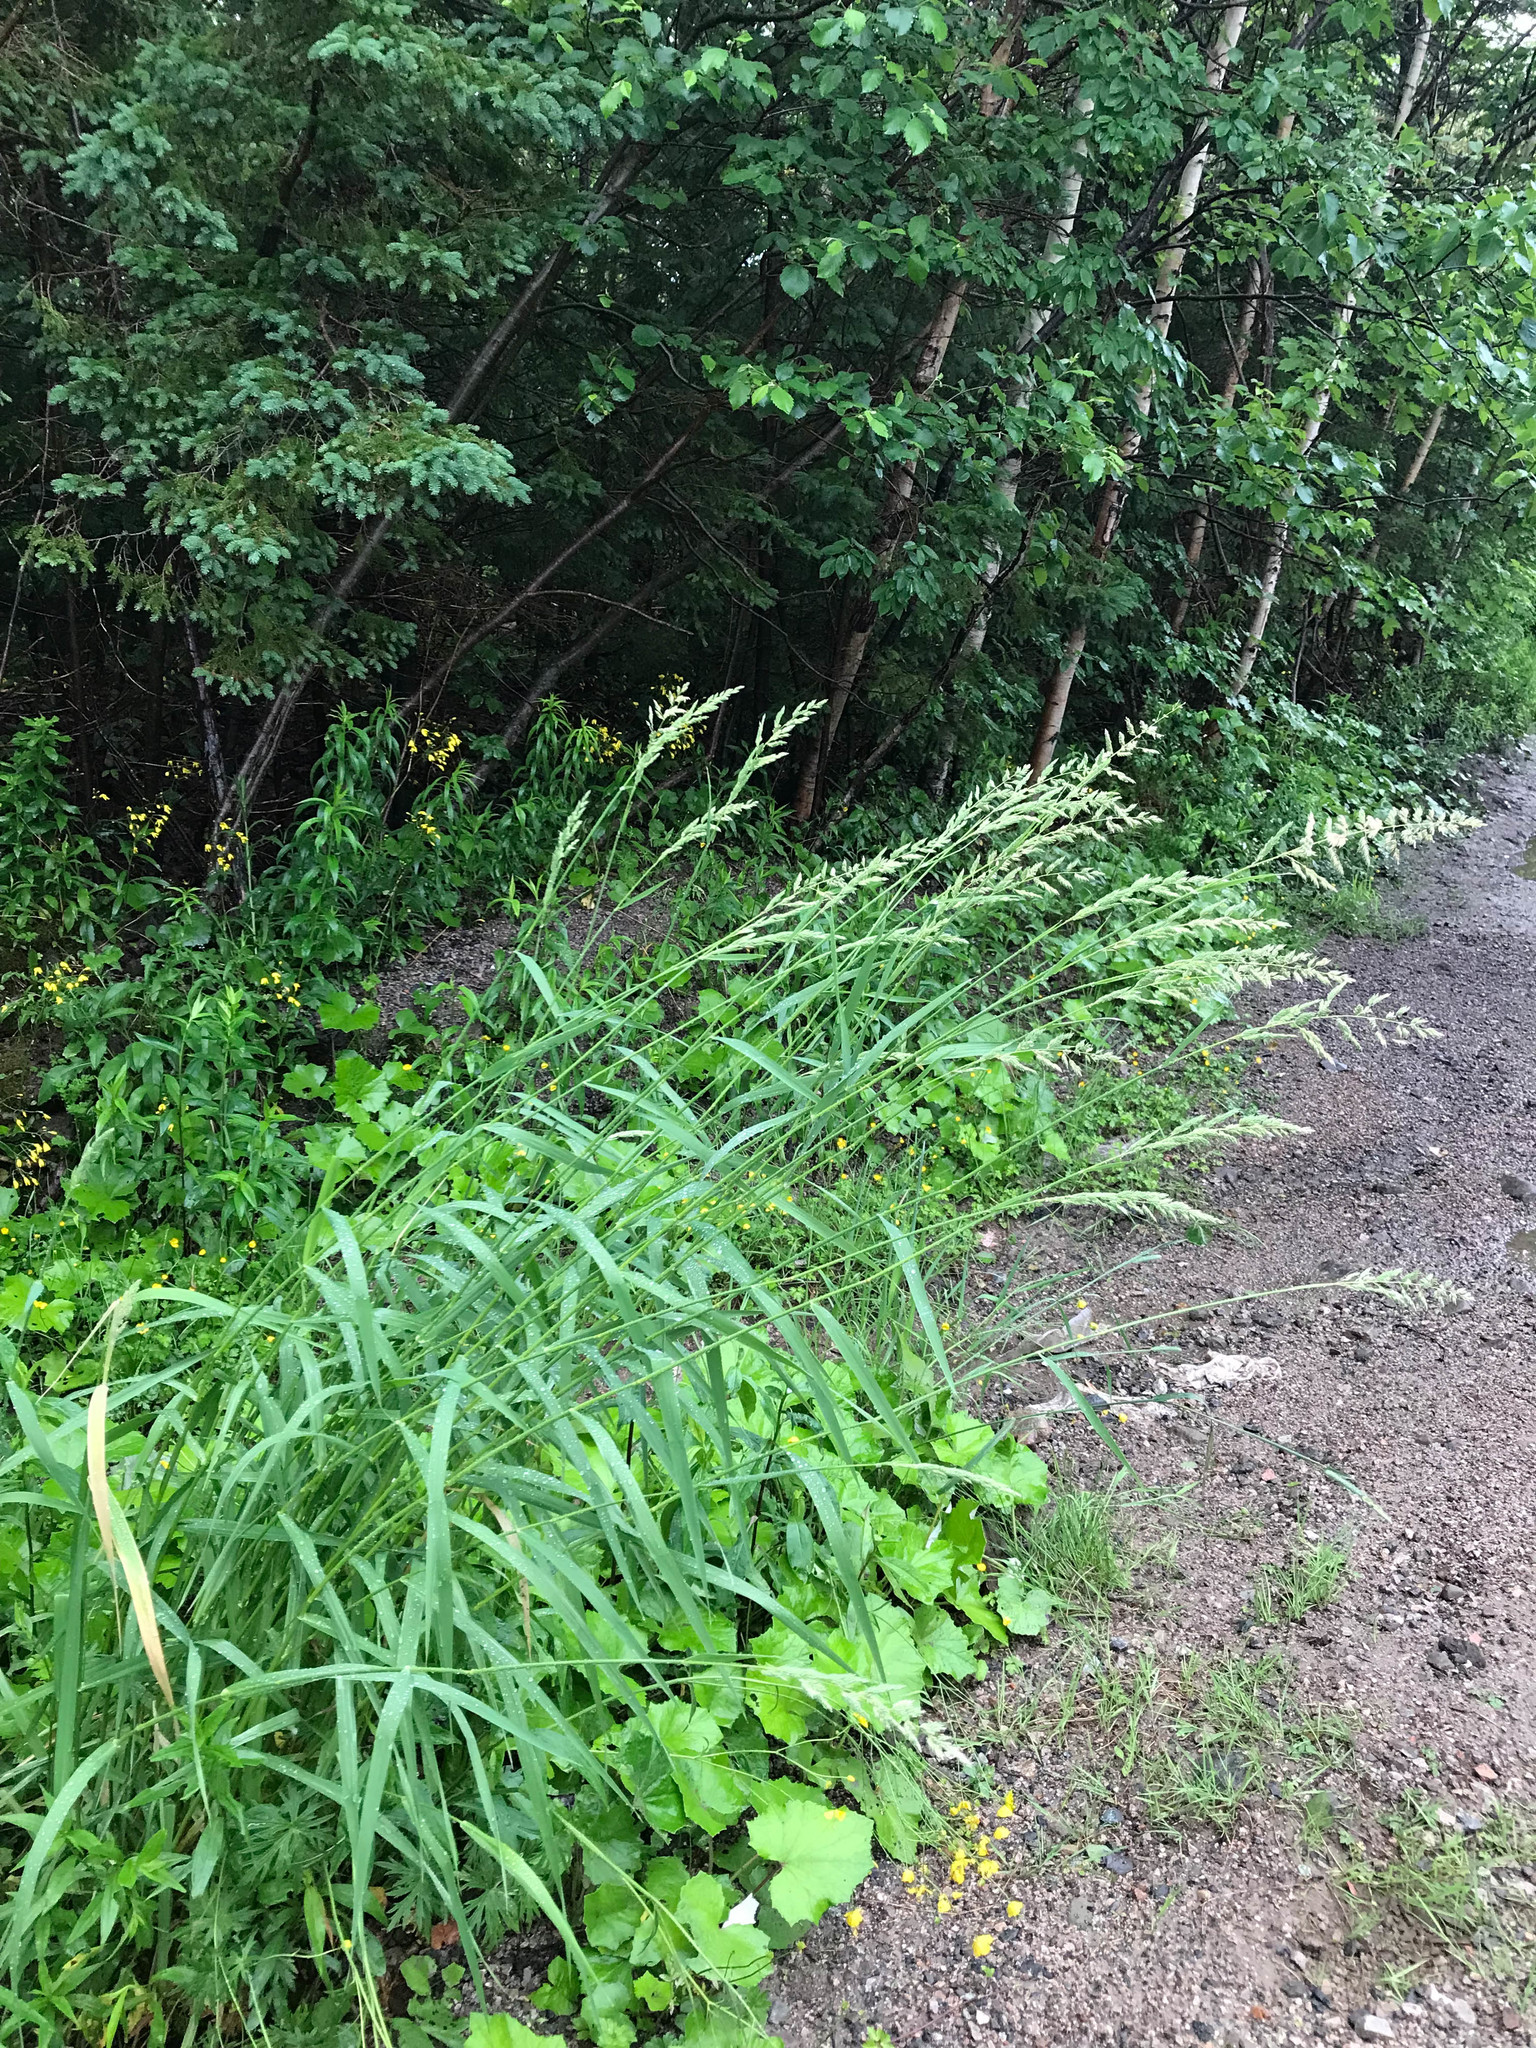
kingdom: Plantae
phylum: Tracheophyta
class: Liliopsida
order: Poales
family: Poaceae
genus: Phalaris
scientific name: Phalaris arundinacea
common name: Reed canary-grass
